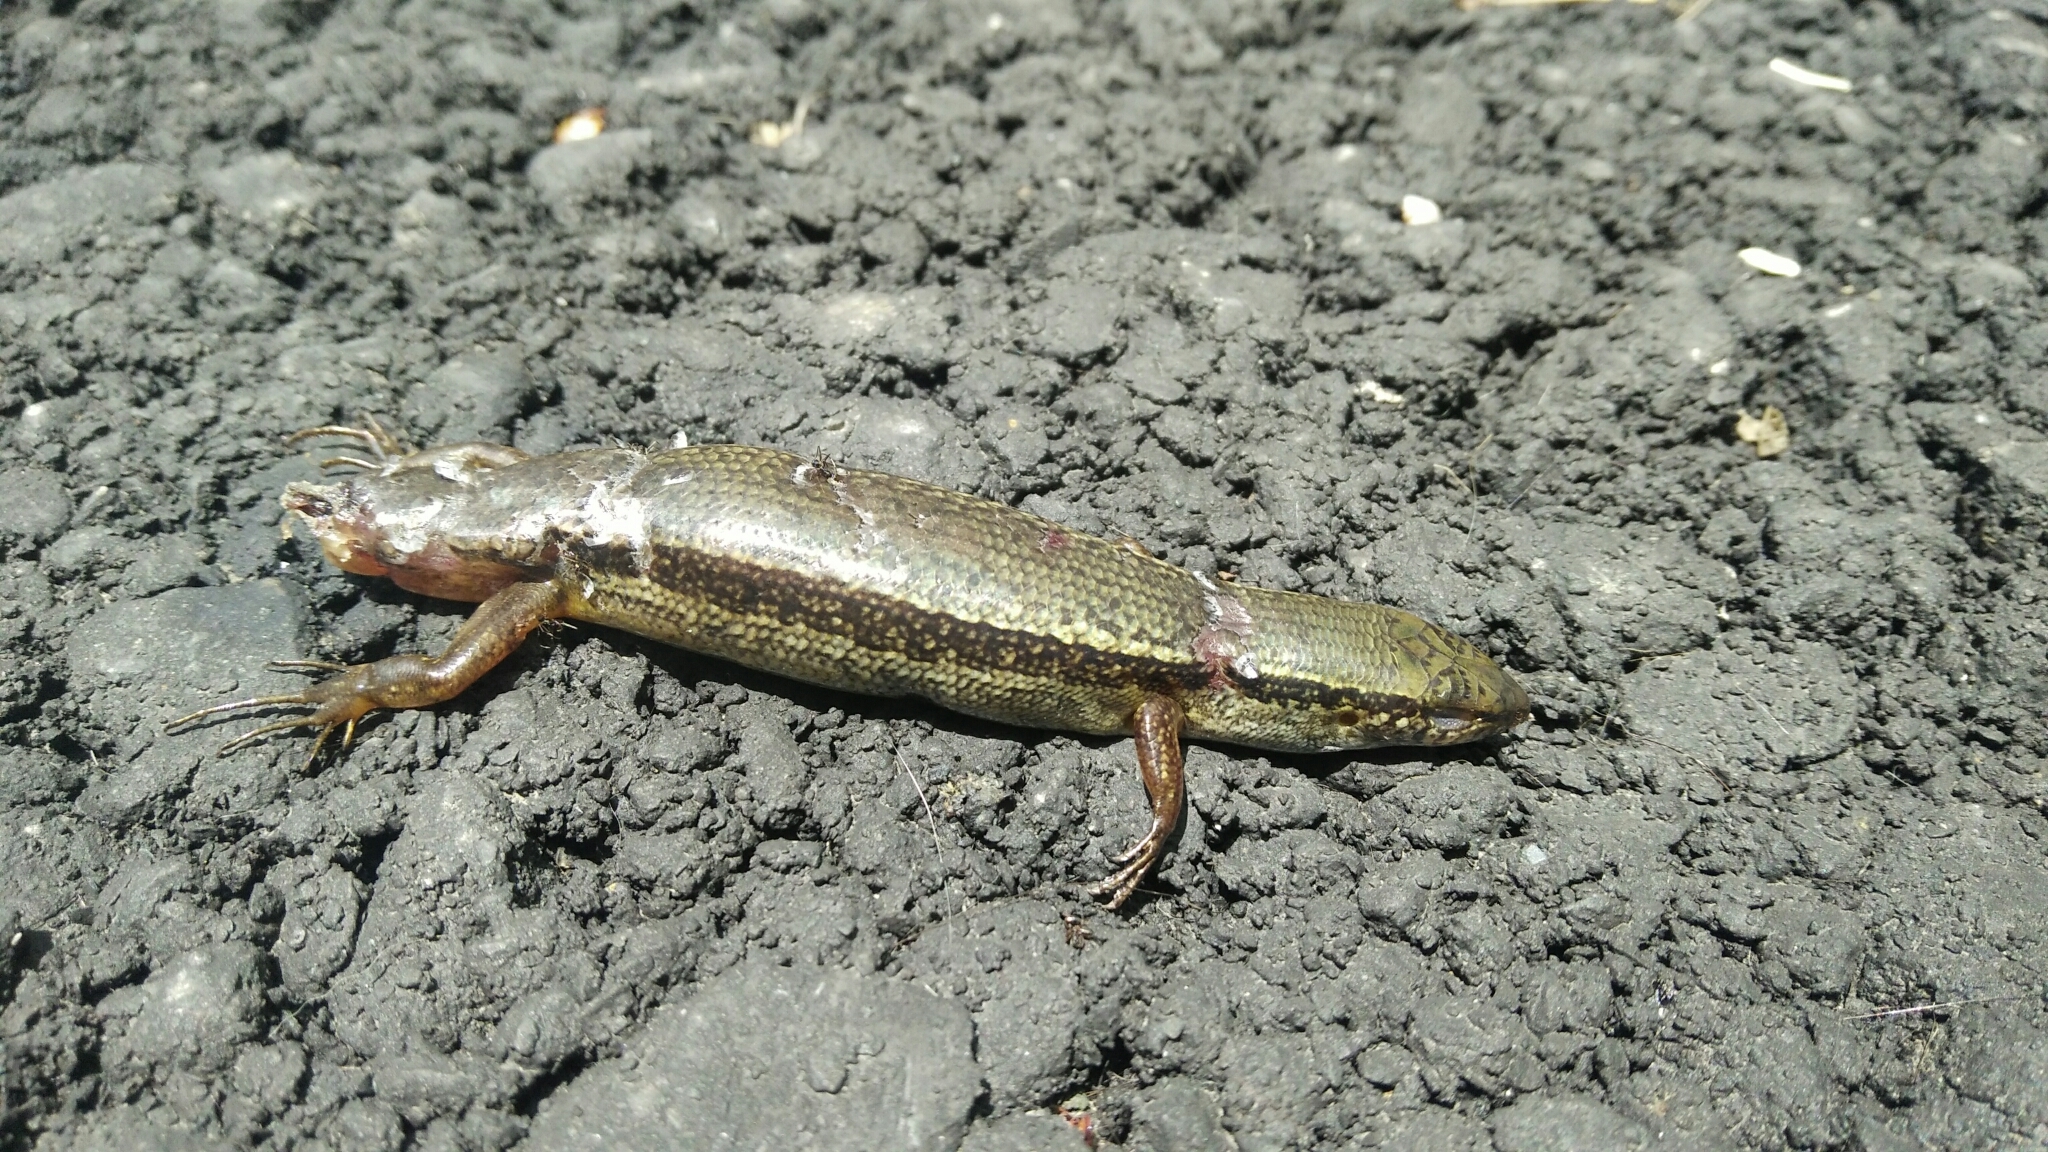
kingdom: Animalia
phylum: Chordata
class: Squamata
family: Scincidae
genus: Sphenomorphus
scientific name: Sphenomorphus indicus
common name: Himalayan forest skink
